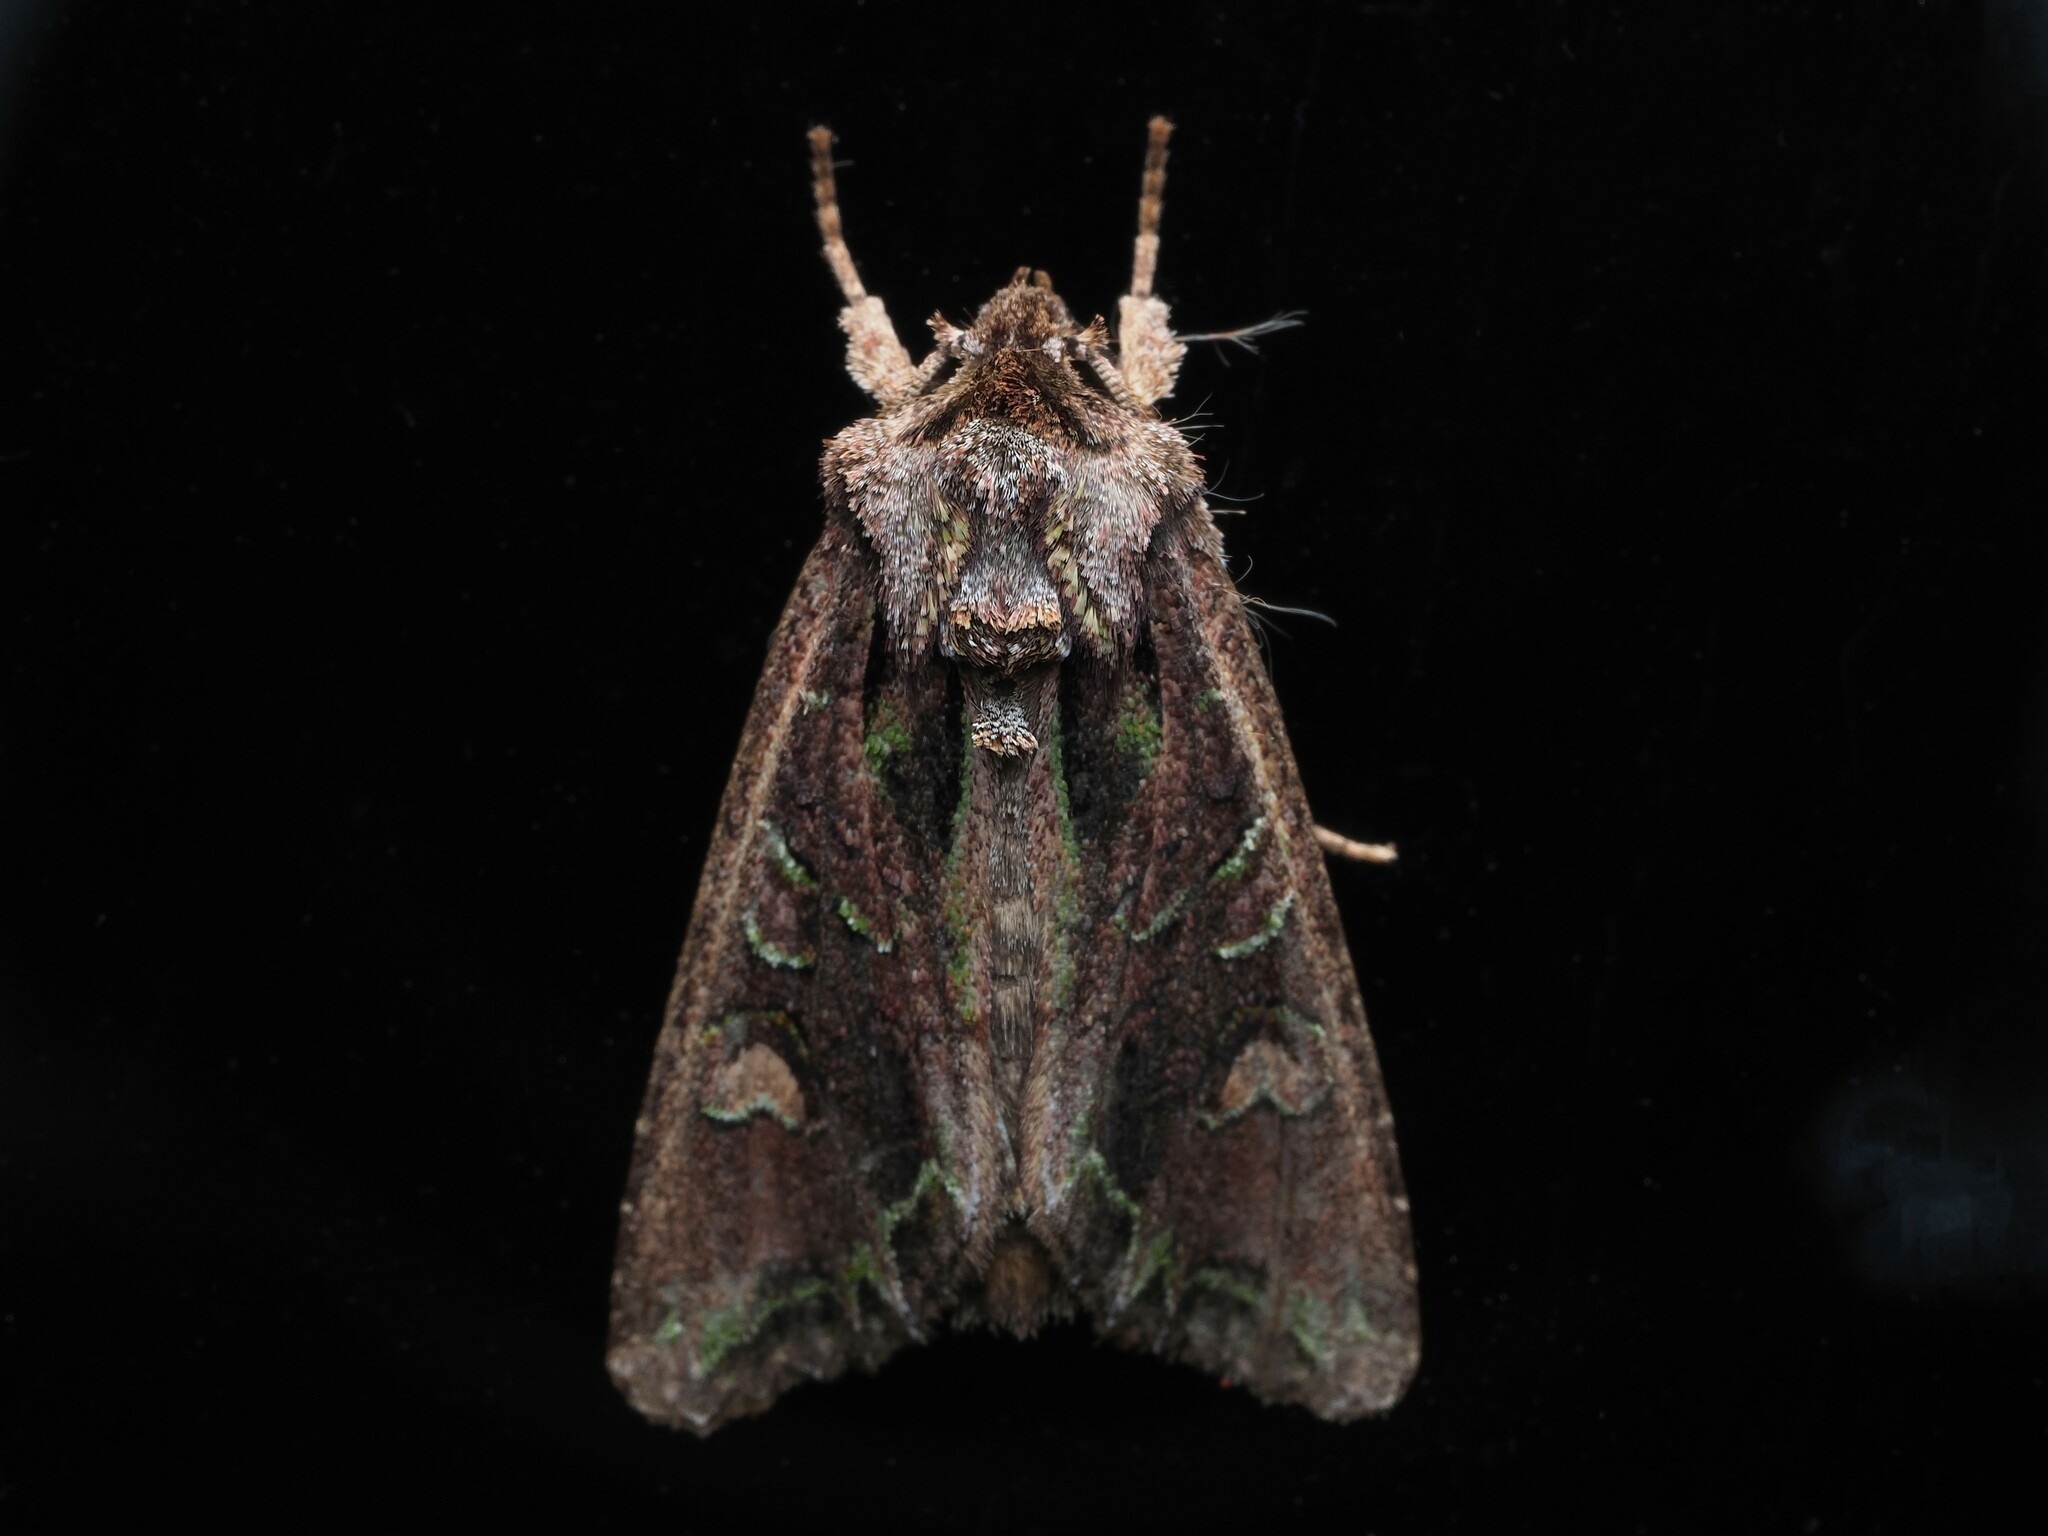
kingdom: Animalia
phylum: Arthropoda
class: Insecta
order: Lepidoptera
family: Noctuidae
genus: Ichneutica
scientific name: Ichneutica insignis
